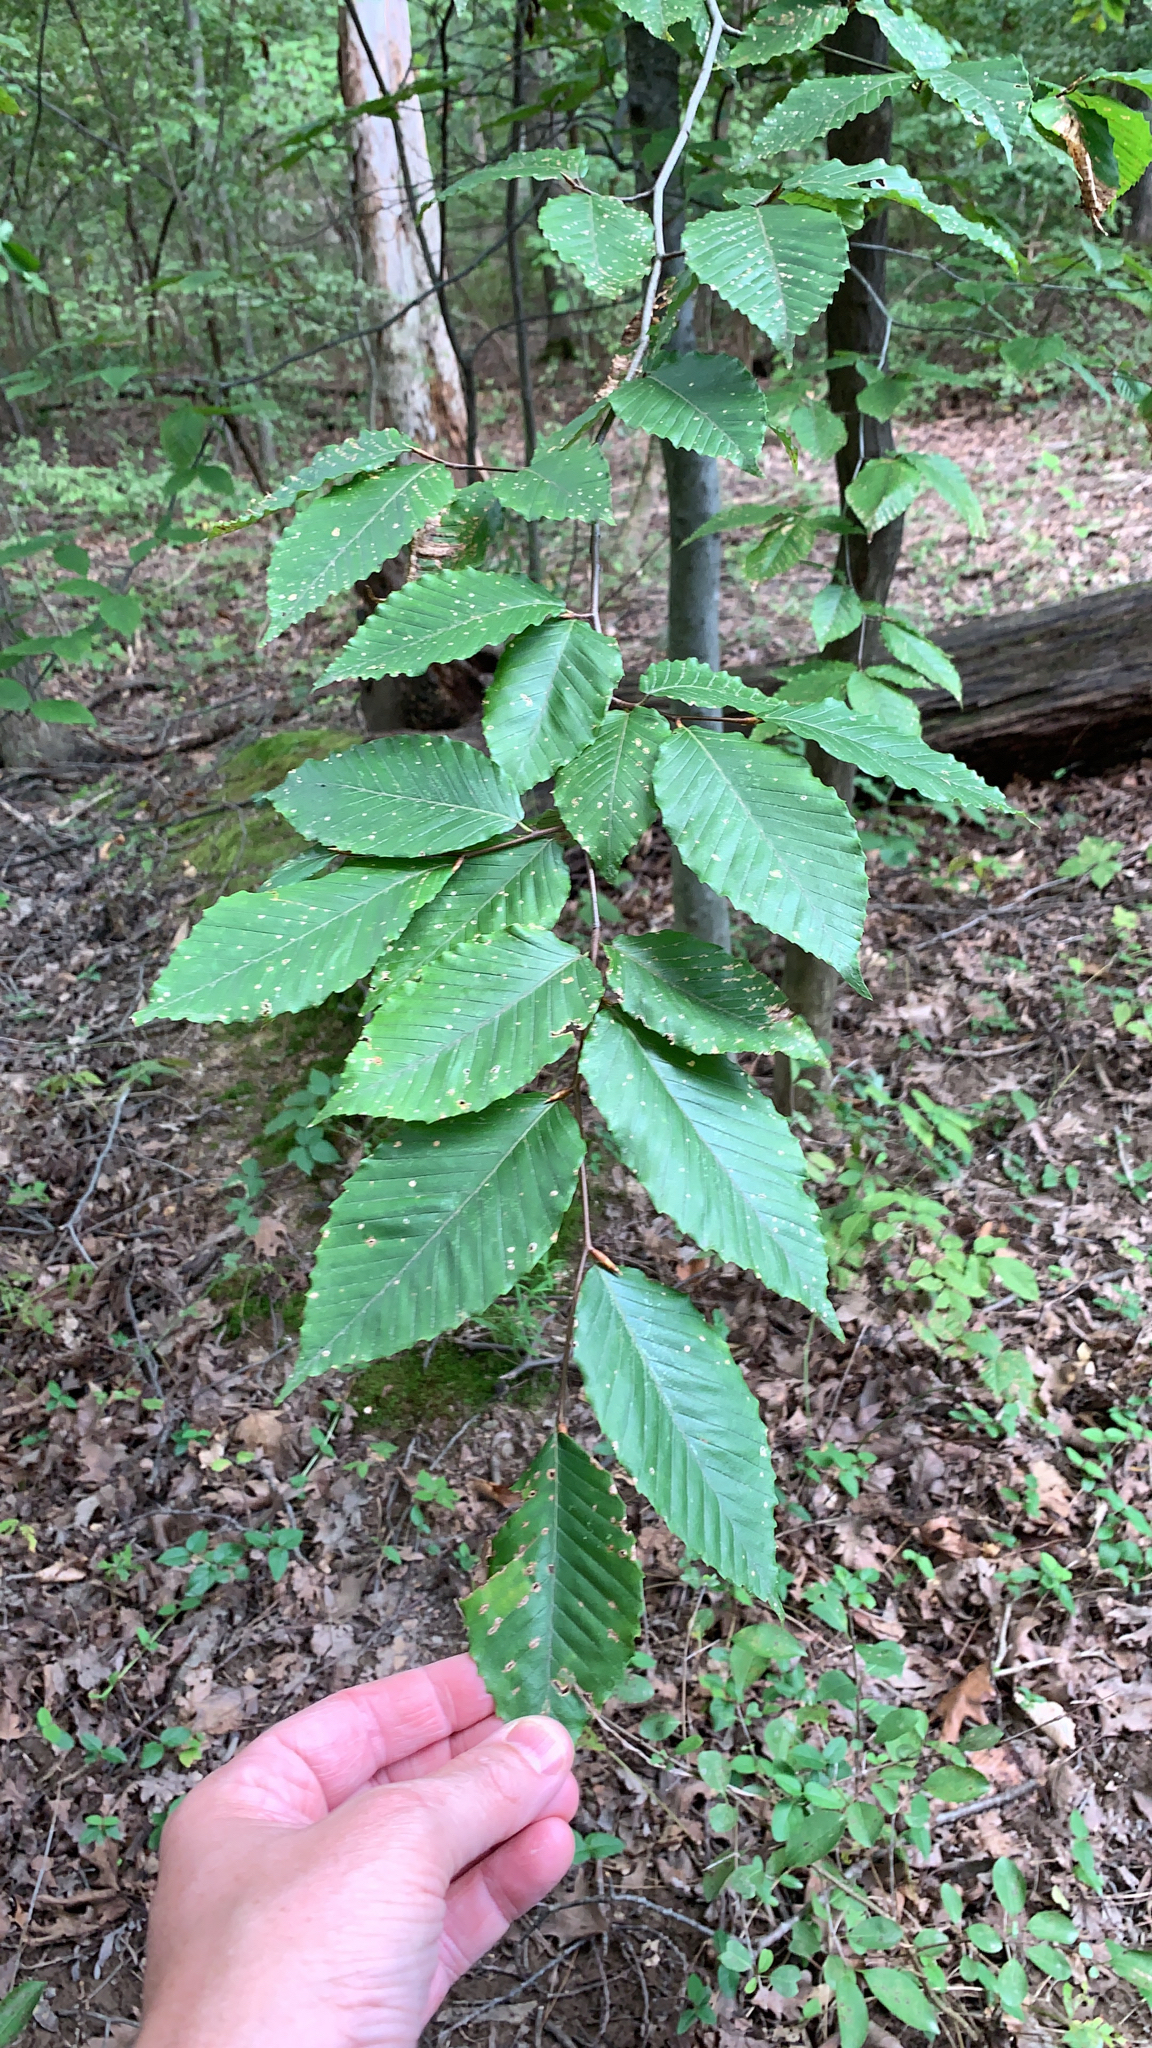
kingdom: Plantae
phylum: Tracheophyta
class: Magnoliopsida
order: Fagales
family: Fagaceae
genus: Fagus
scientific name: Fagus grandifolia
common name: American beech
